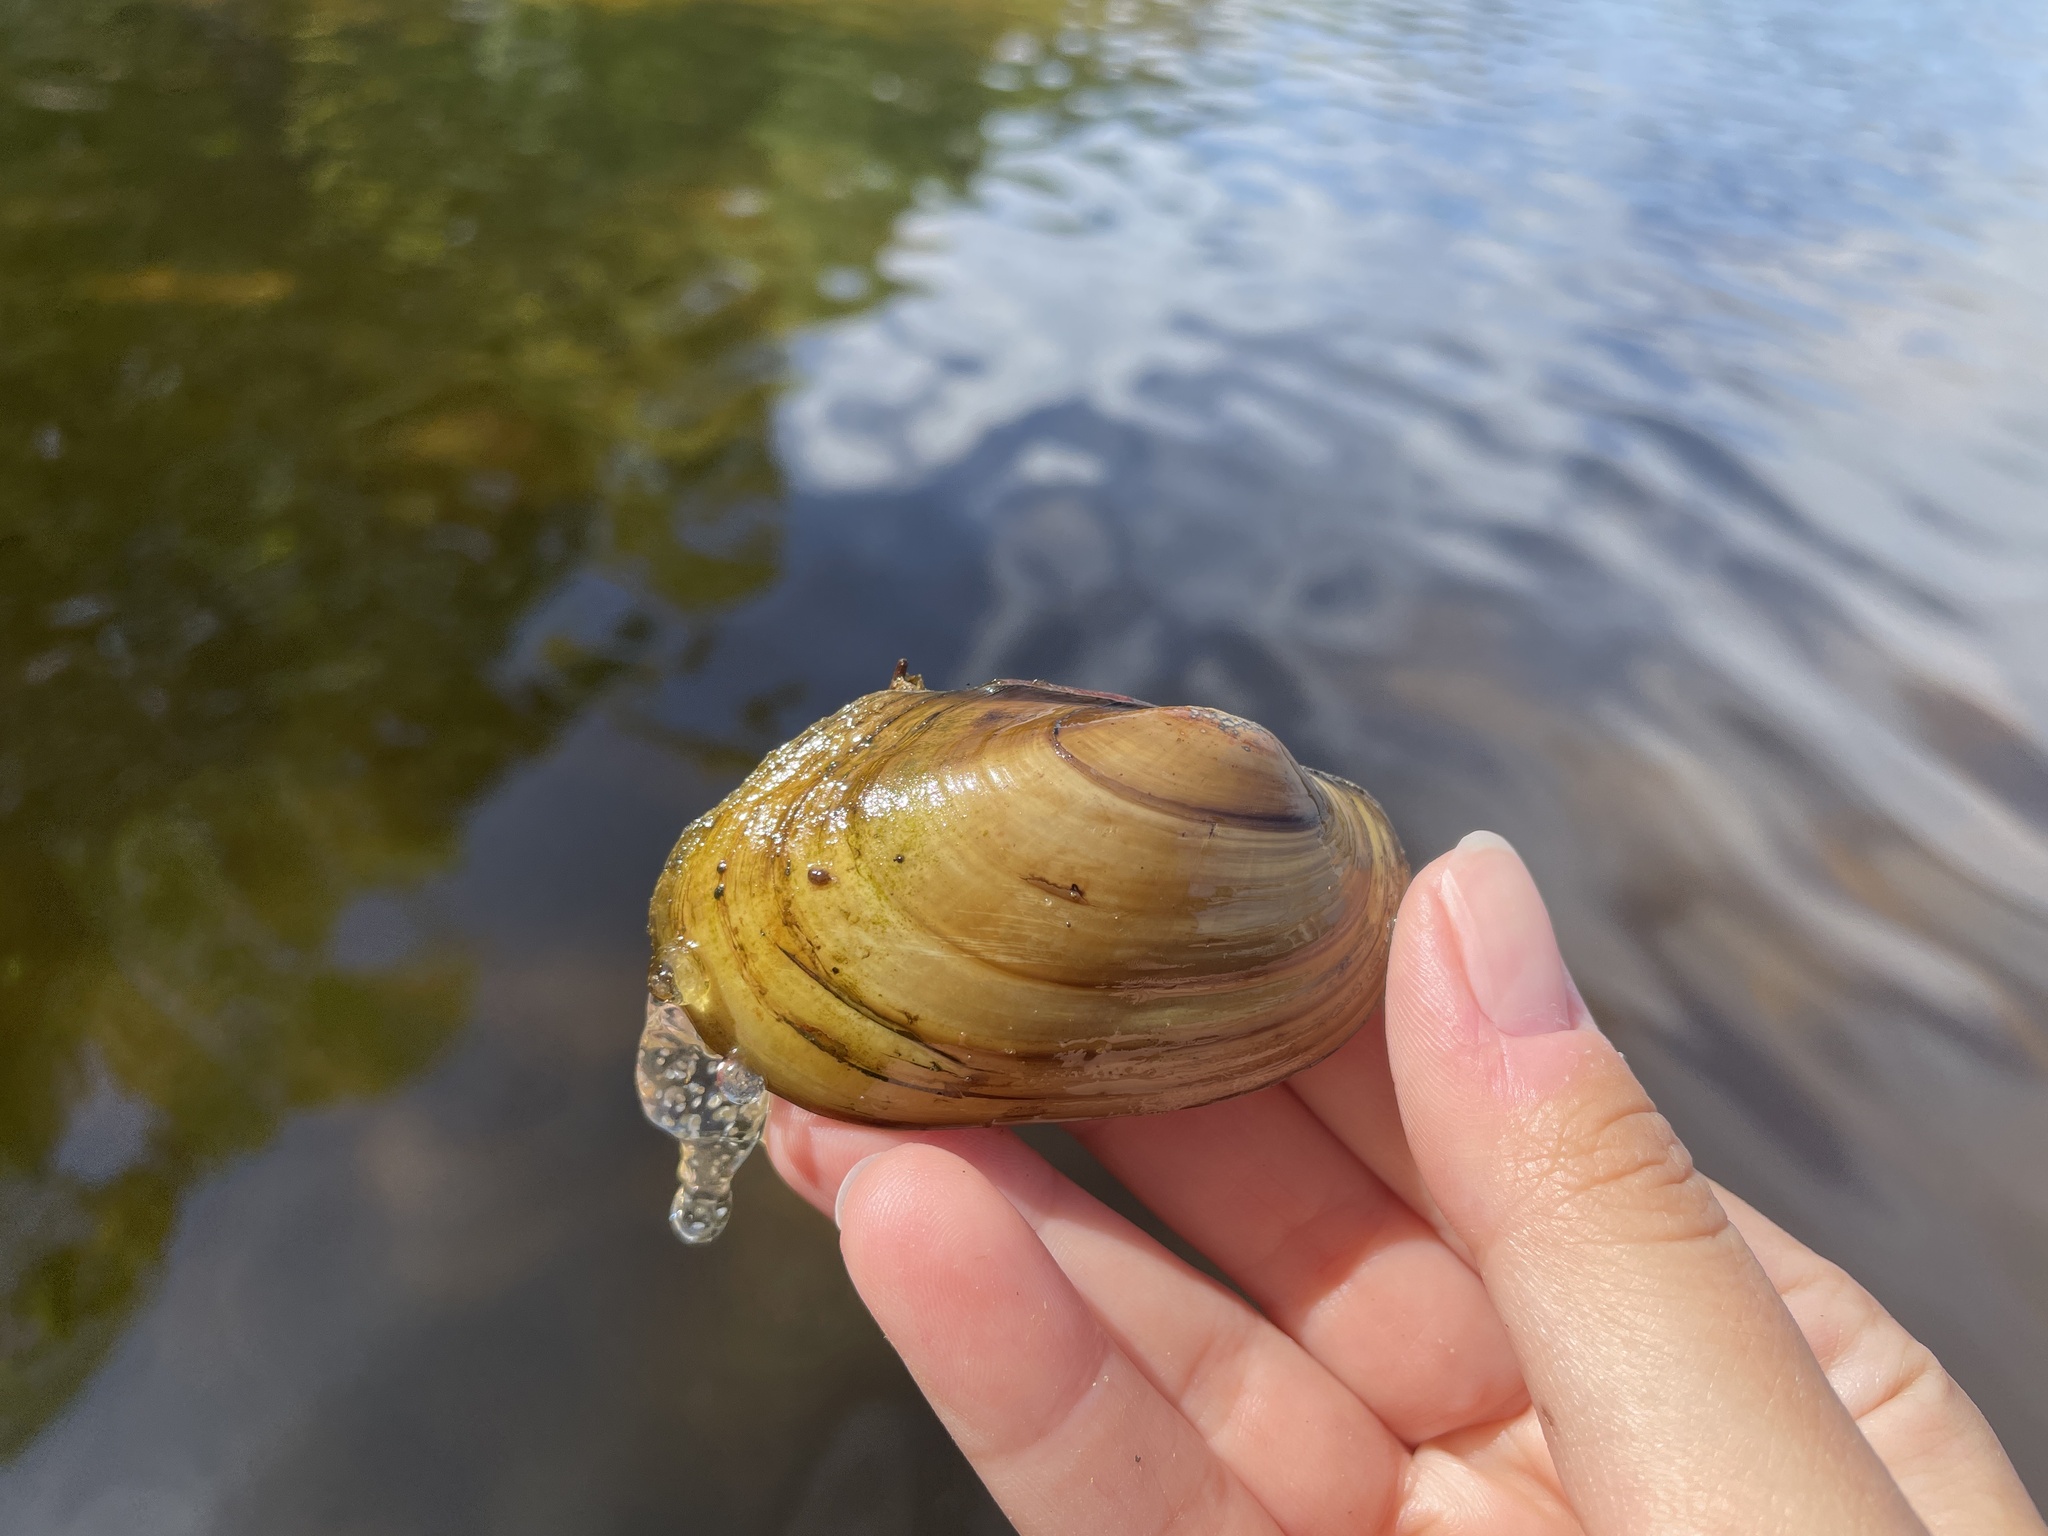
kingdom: Animalia
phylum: Mollusca
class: Bivalvia
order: Unionida
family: Unionidae
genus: Lampsilis
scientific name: Lampsilis siliquoidea
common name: Fatmucket
